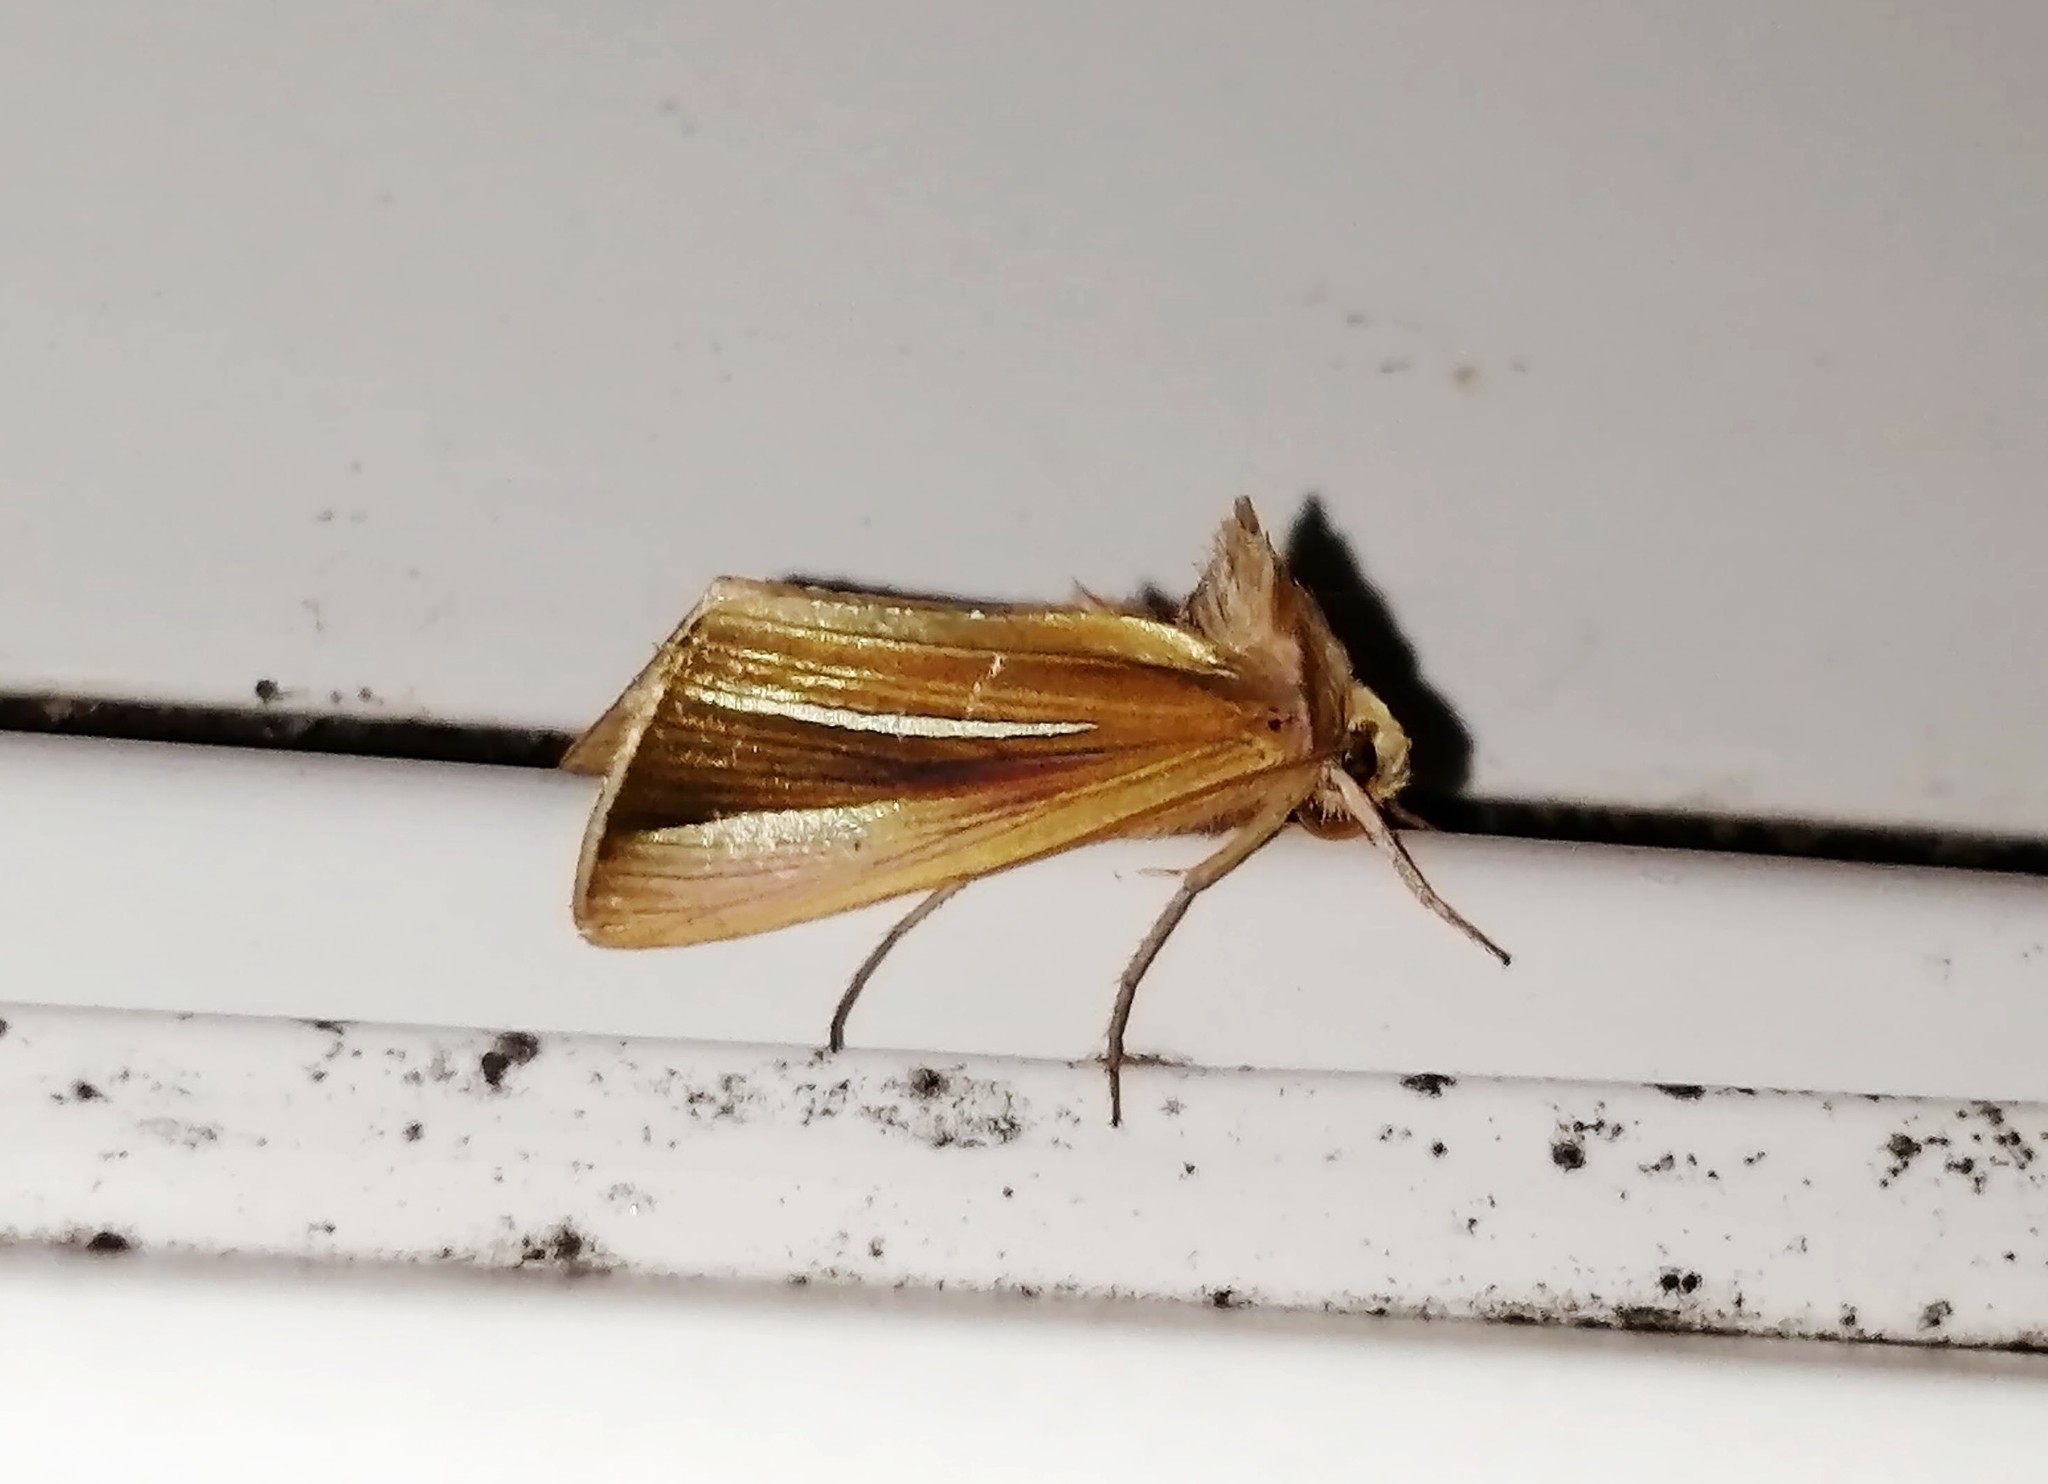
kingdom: Animalia
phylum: Arthropoda
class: Insecta
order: Lepidoptera
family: Noctuidae
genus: Plusia
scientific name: Plusia venusta
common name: White-streaked looper moth
